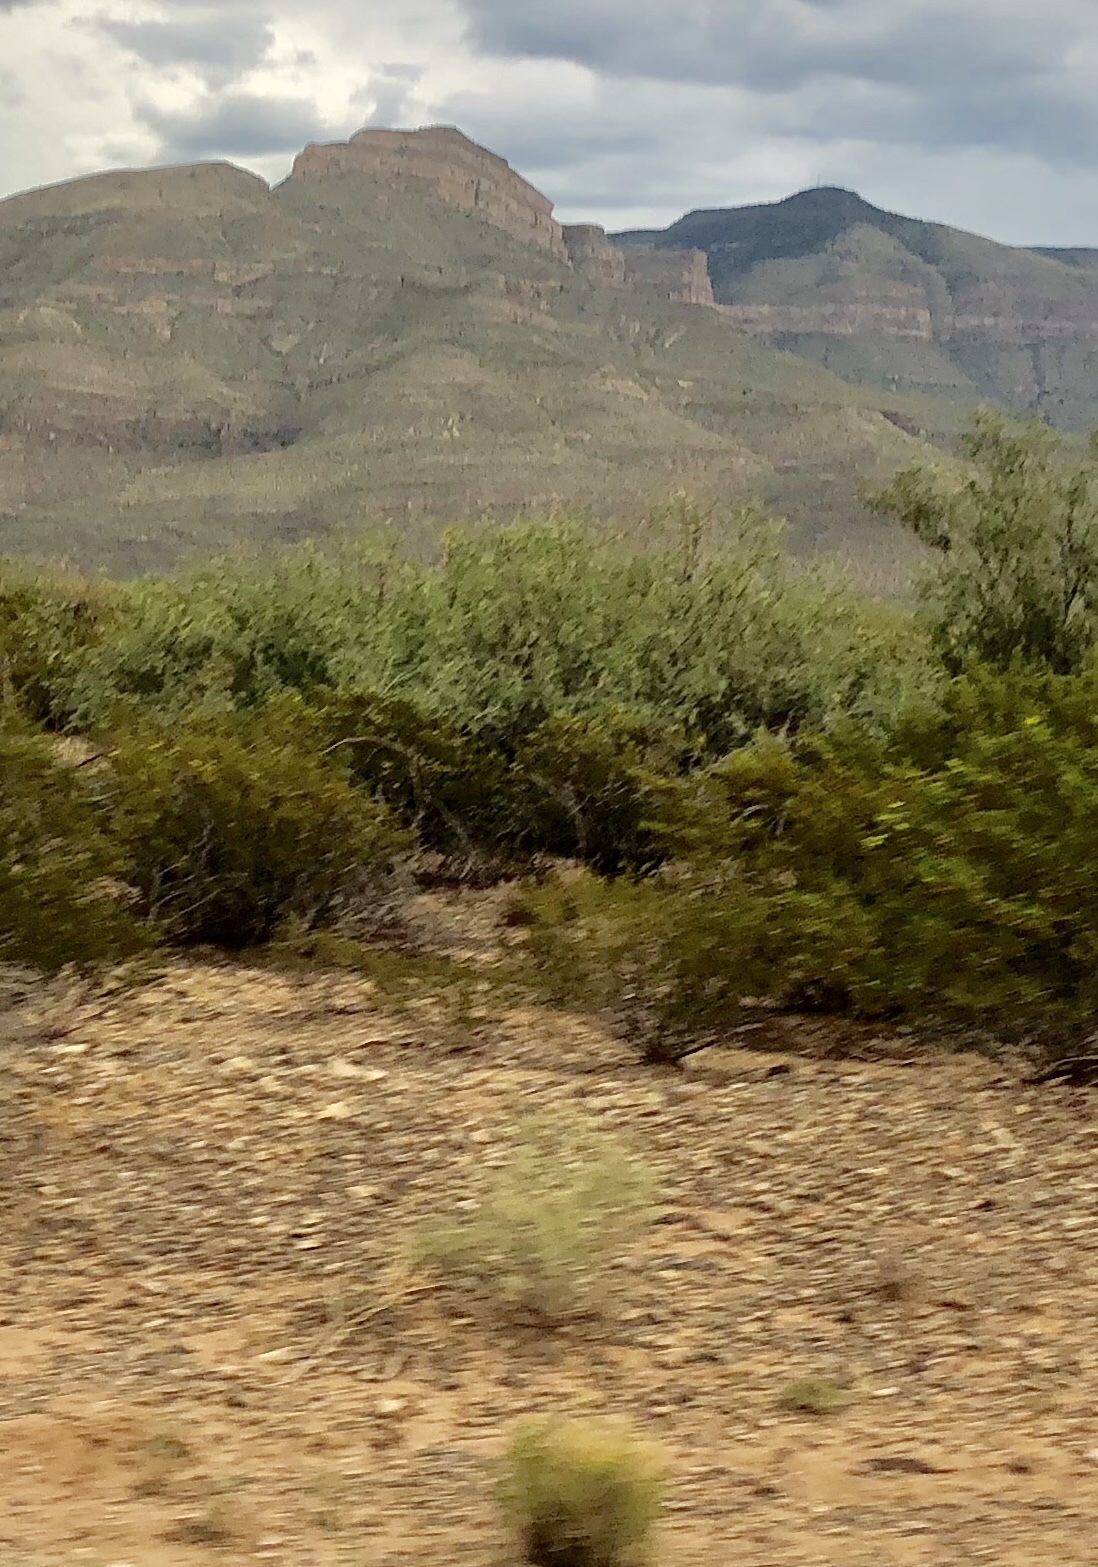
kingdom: Plantae
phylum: Tracheophyta
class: Magnoliopsida
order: Zygophyllales
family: Zygophyllaceae
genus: Larrea
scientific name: Larrea tridentata
